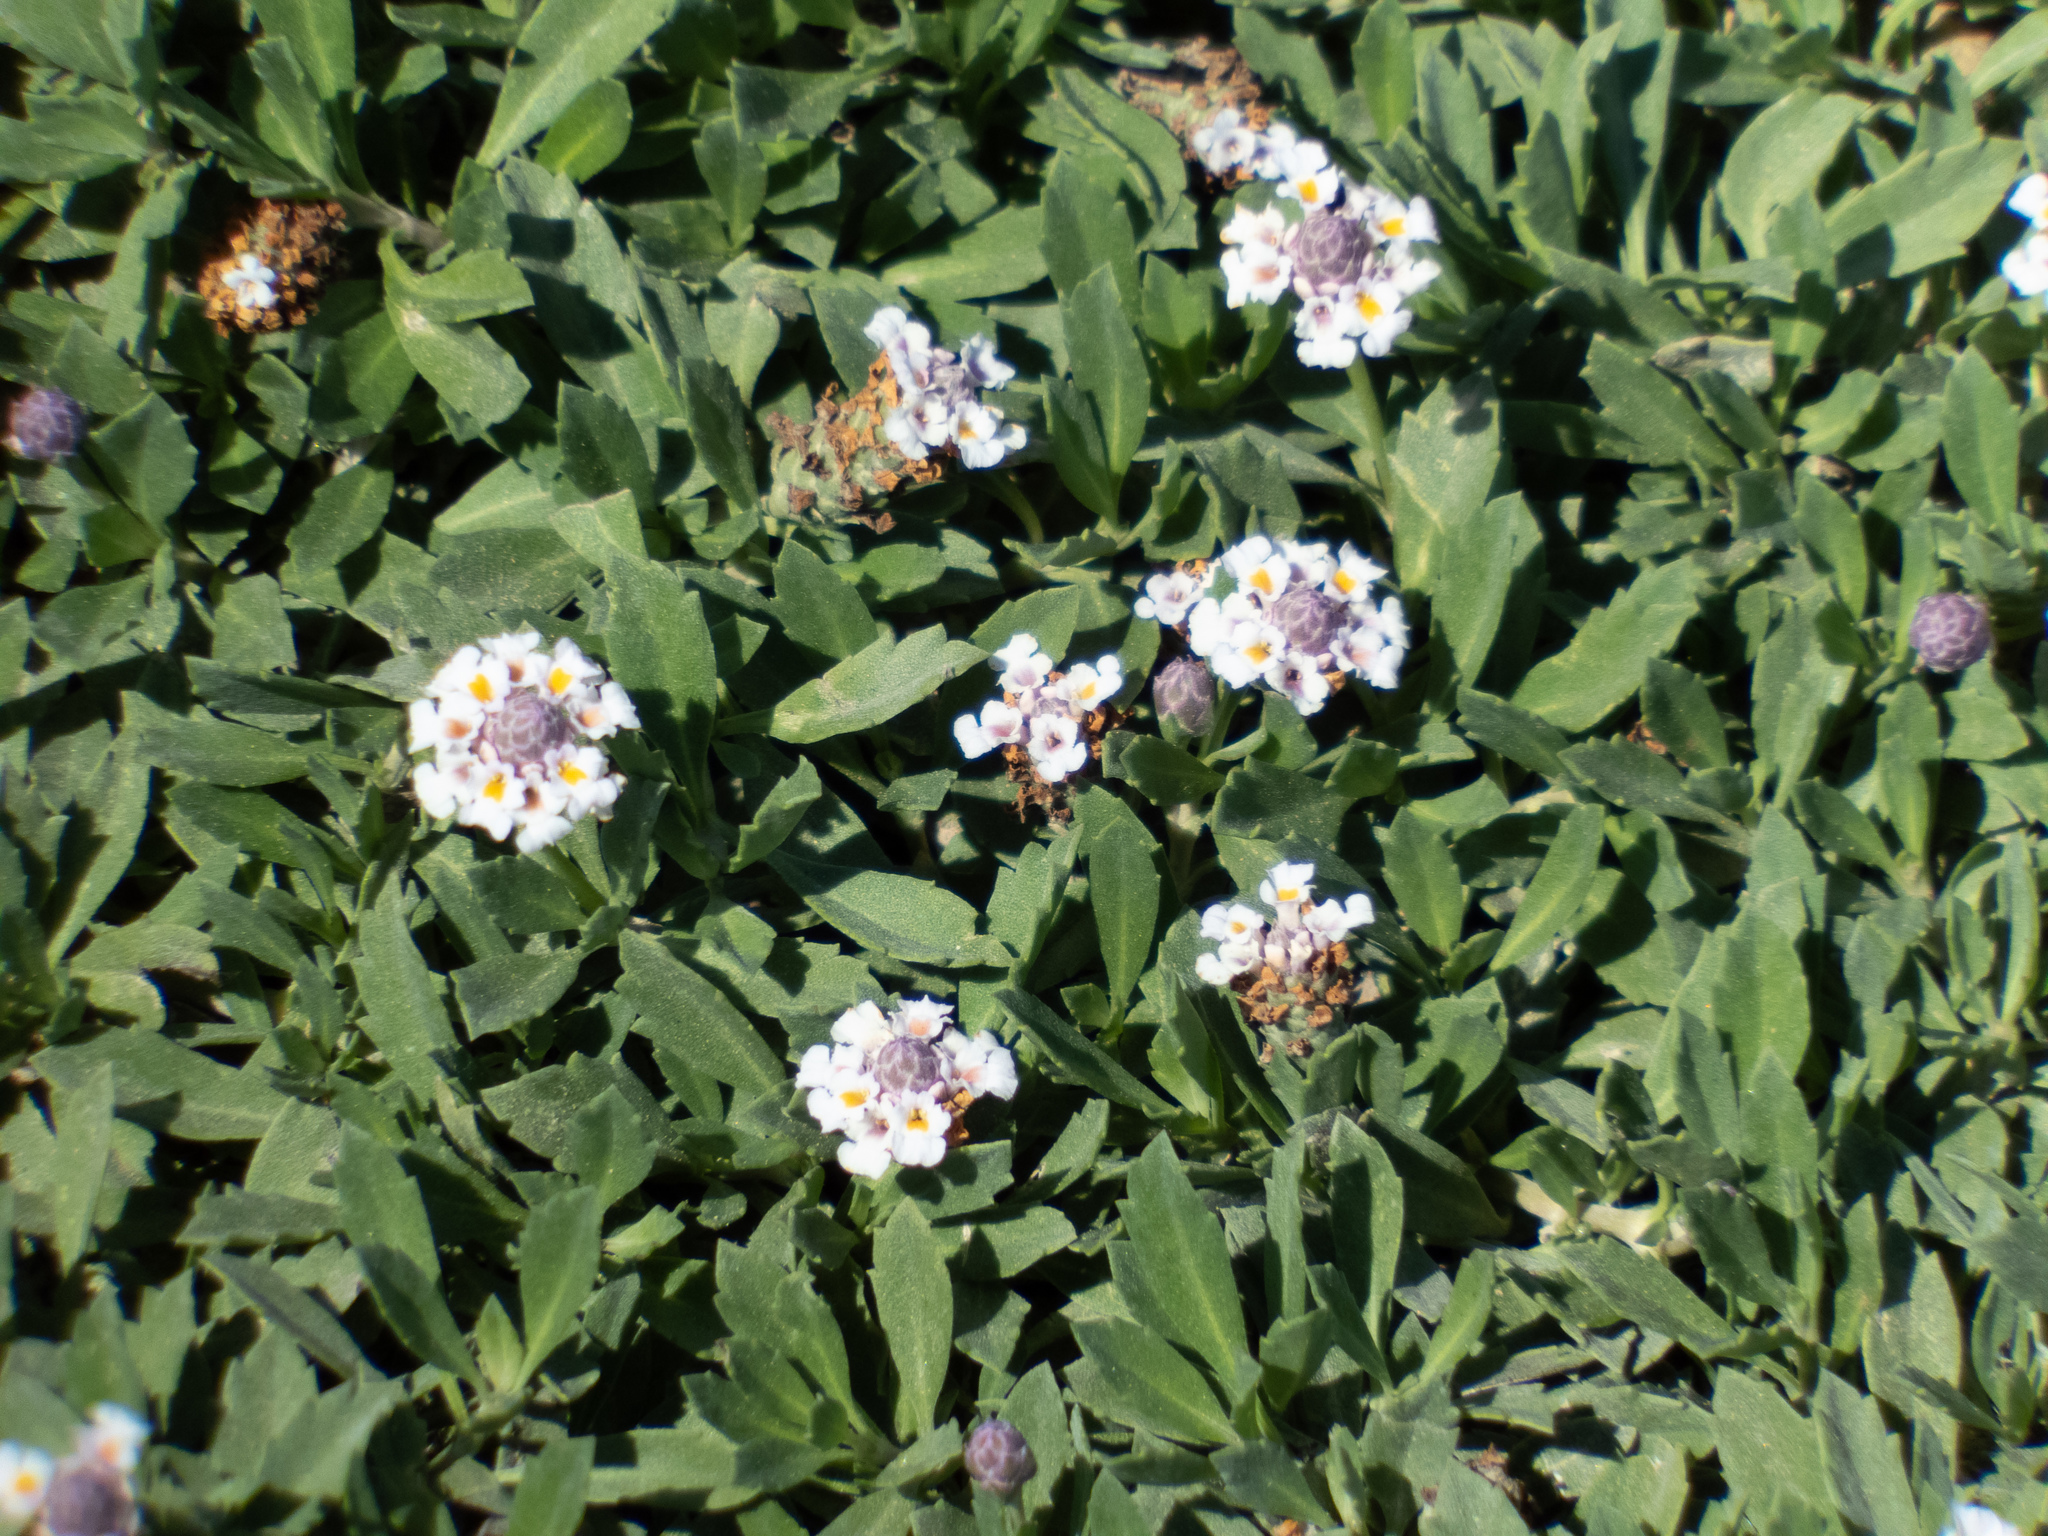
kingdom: Plantae
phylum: Tracheophyta
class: Magnoliopsida
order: Lamiales
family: Verbenaceae
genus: Phyla
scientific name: Phyla nodiflora
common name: Frogfruit
